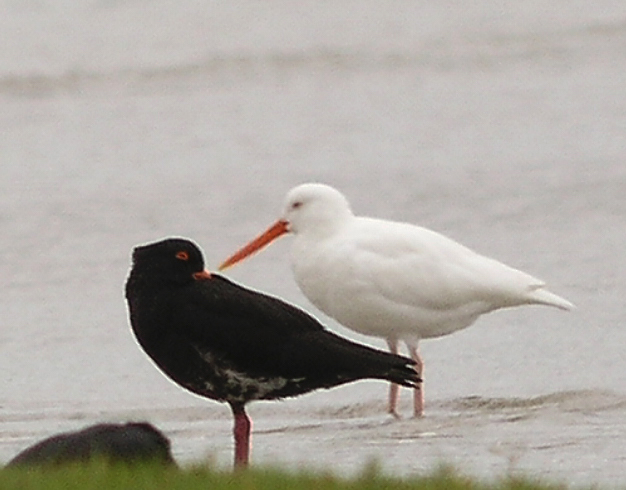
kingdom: Animalia
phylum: Chordata
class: Aves
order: Charadriiformes
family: Haematopodidae
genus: Haematopus
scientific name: Haematopus unicolor
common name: Variable oystercatcher
